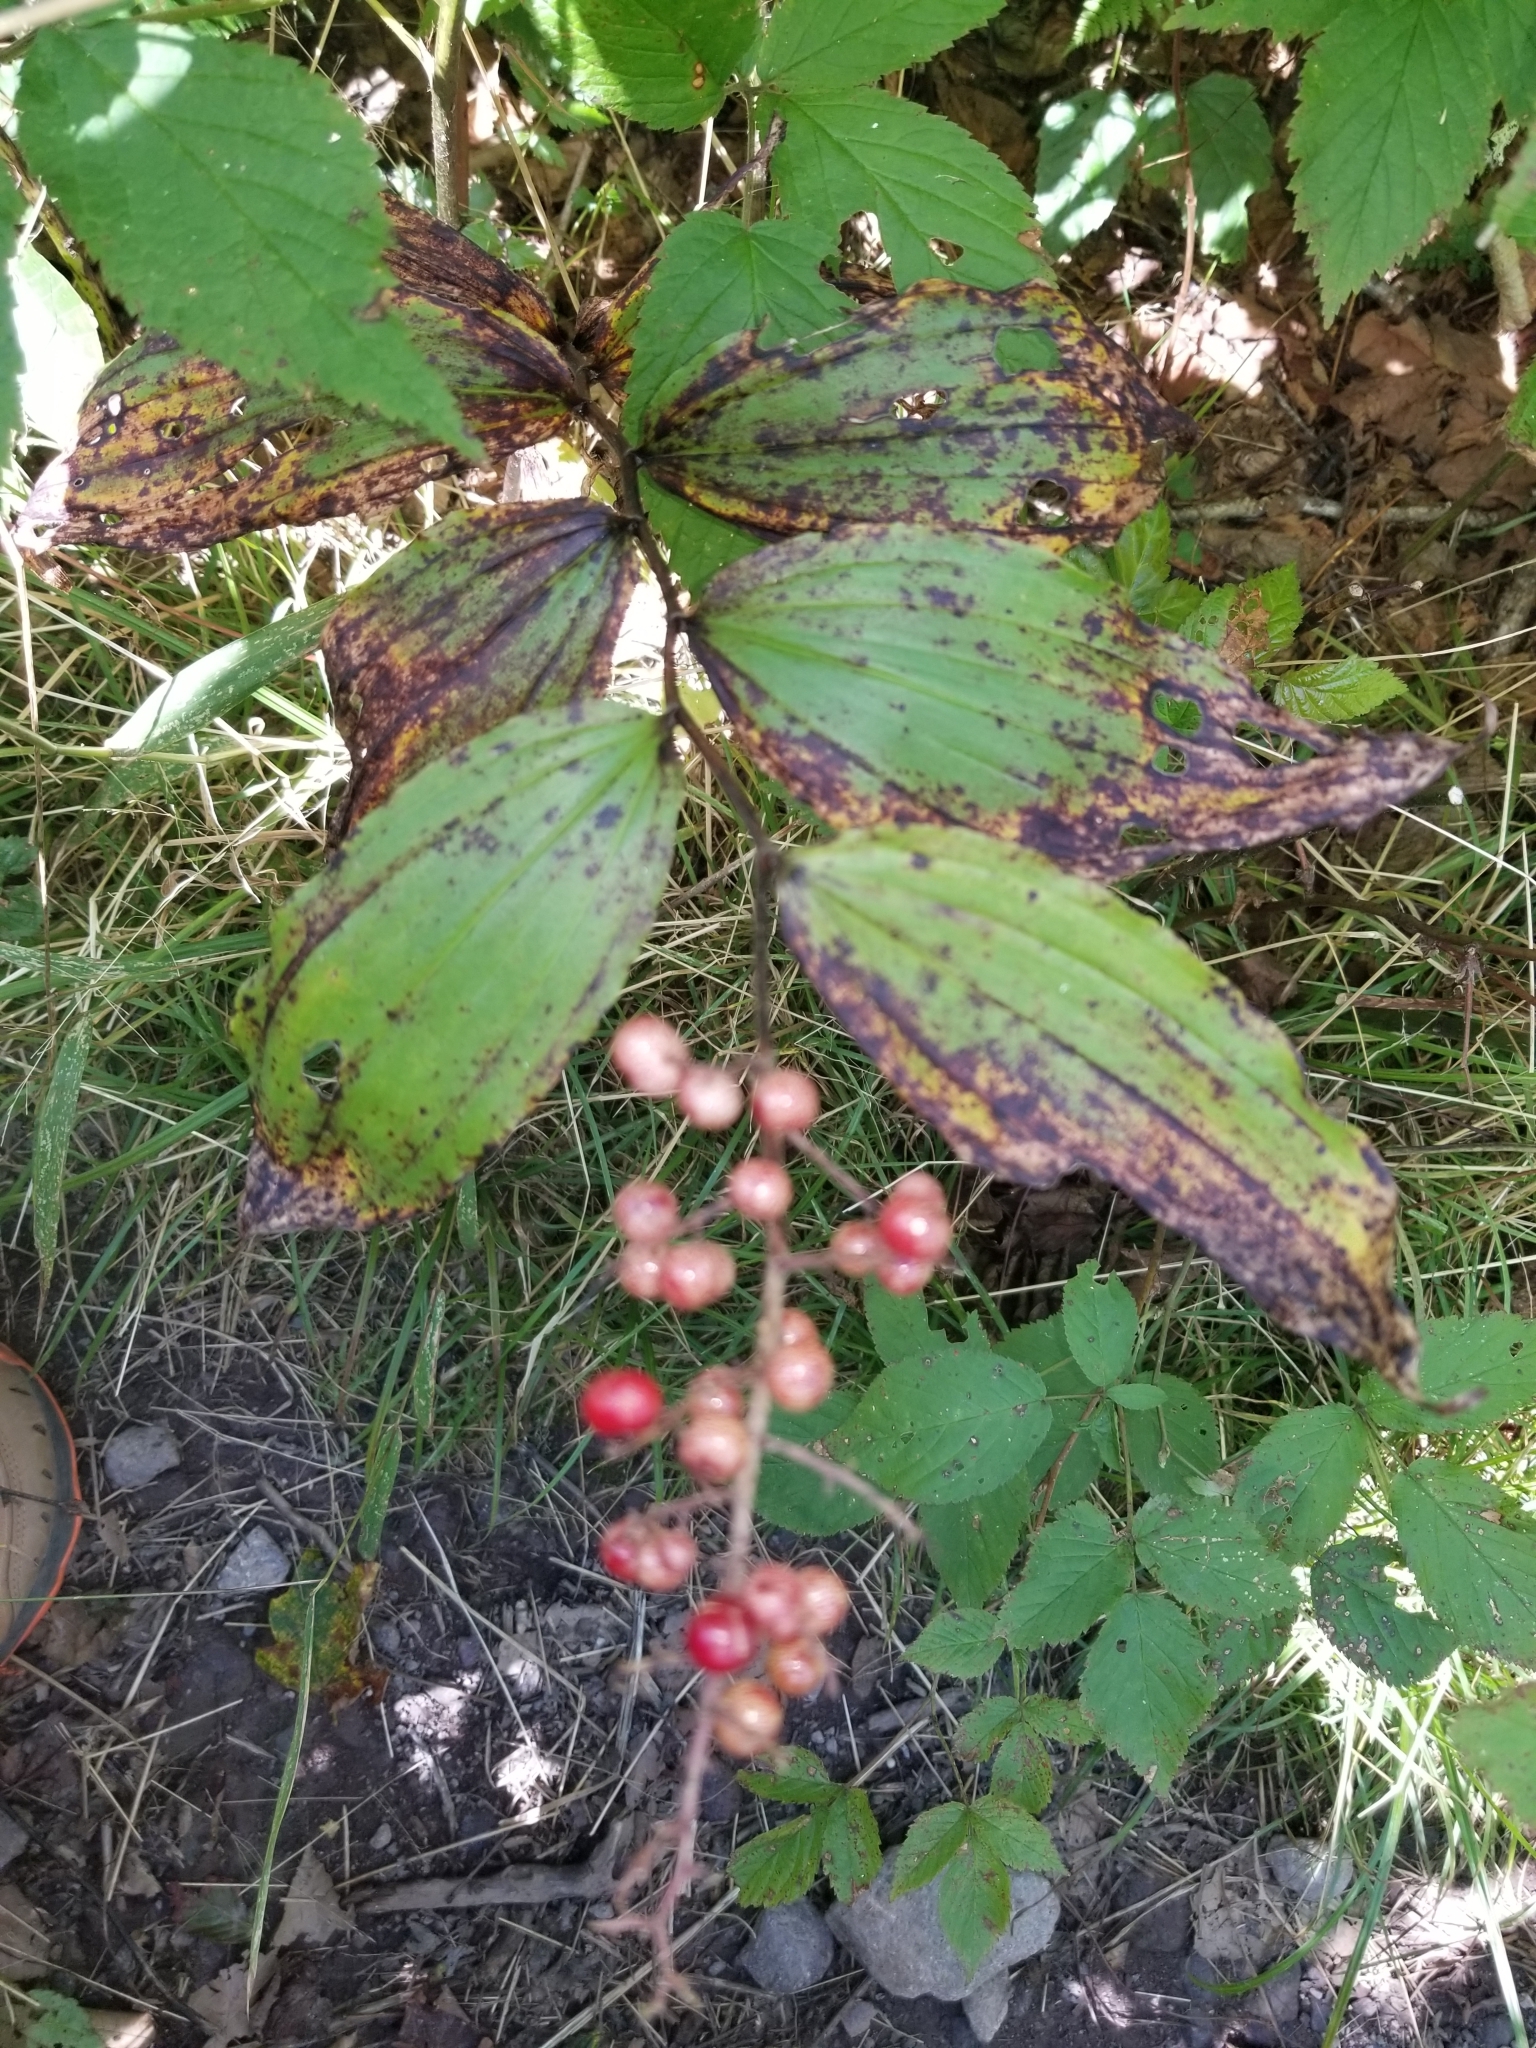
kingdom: Plantae
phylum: Tracheophyta
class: Liliopsida
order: Asparagales
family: Asparagaceae
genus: Maianthemum
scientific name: Maianthemum racemosum
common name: False spikenard
